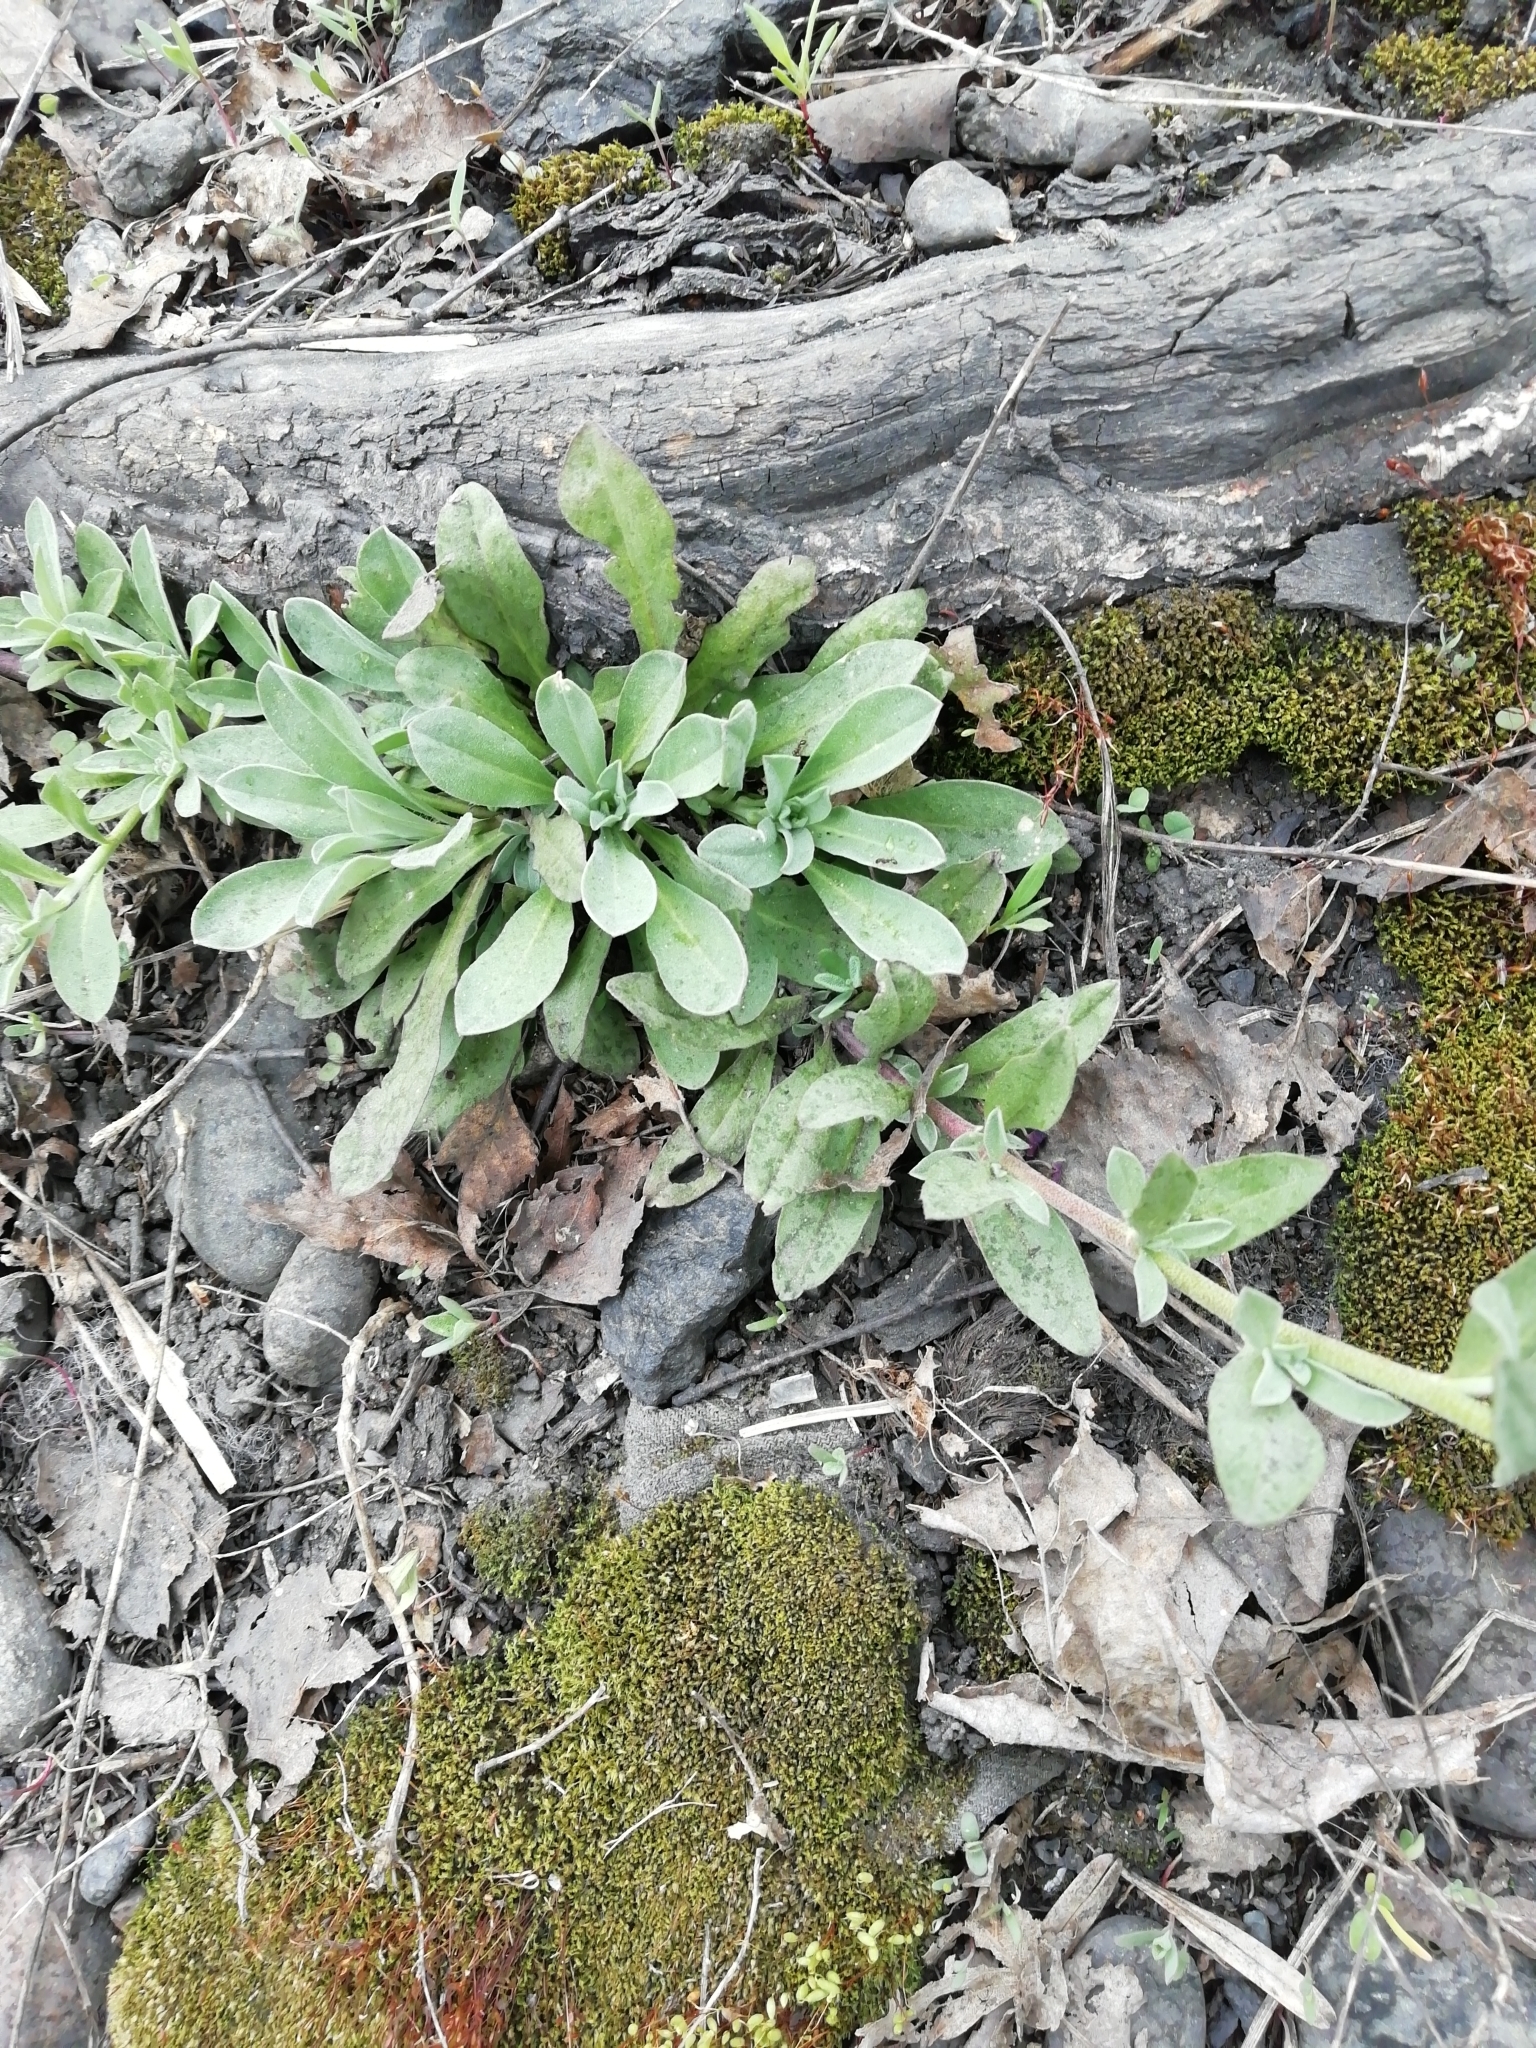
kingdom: Plantae
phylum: Tracheophyta
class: Magnoliopsida
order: Brassicales
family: Brassicaceae
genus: Berteroa
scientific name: Berteroa incana
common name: Hoary alison
